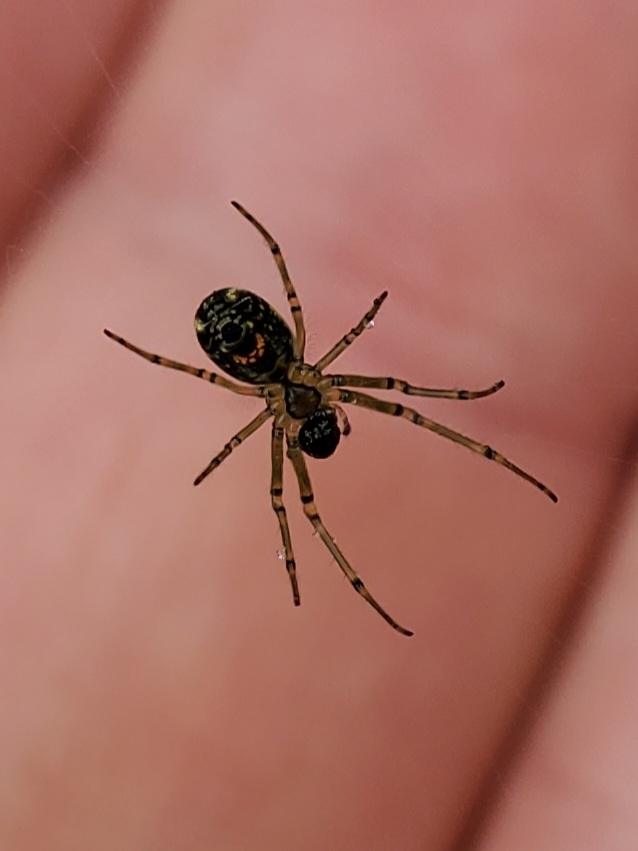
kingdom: Animalia
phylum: Arthropoda
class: Arachnida
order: Araneae
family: Tetragnathidae
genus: Leucauge
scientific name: Leucauge venusta
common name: Longjawed orb weavers
